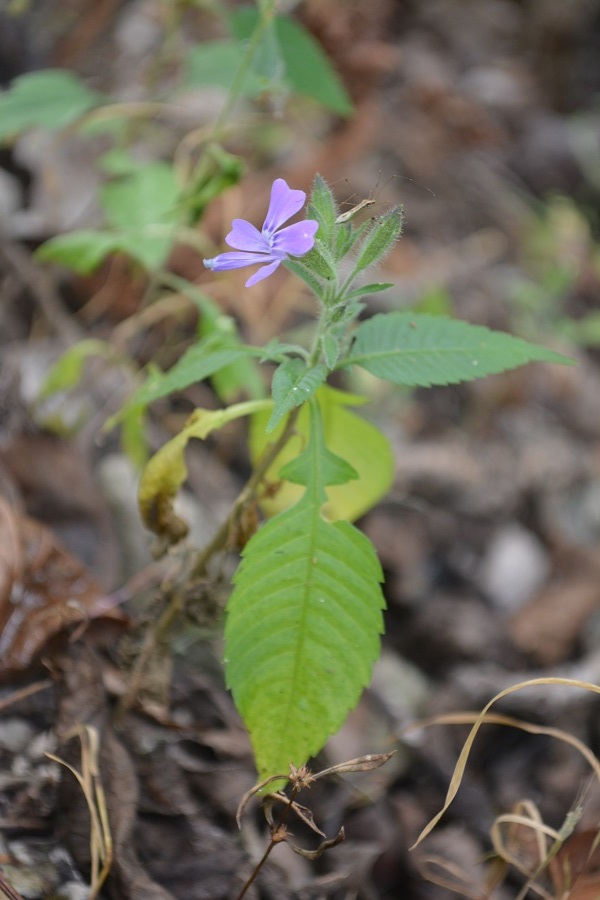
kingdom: Plantae
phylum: Tracheophyta
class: Magnoliopsida
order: Ericales
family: Polemoniaceae
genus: Bonplandia
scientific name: Bonplandia geminiflora
